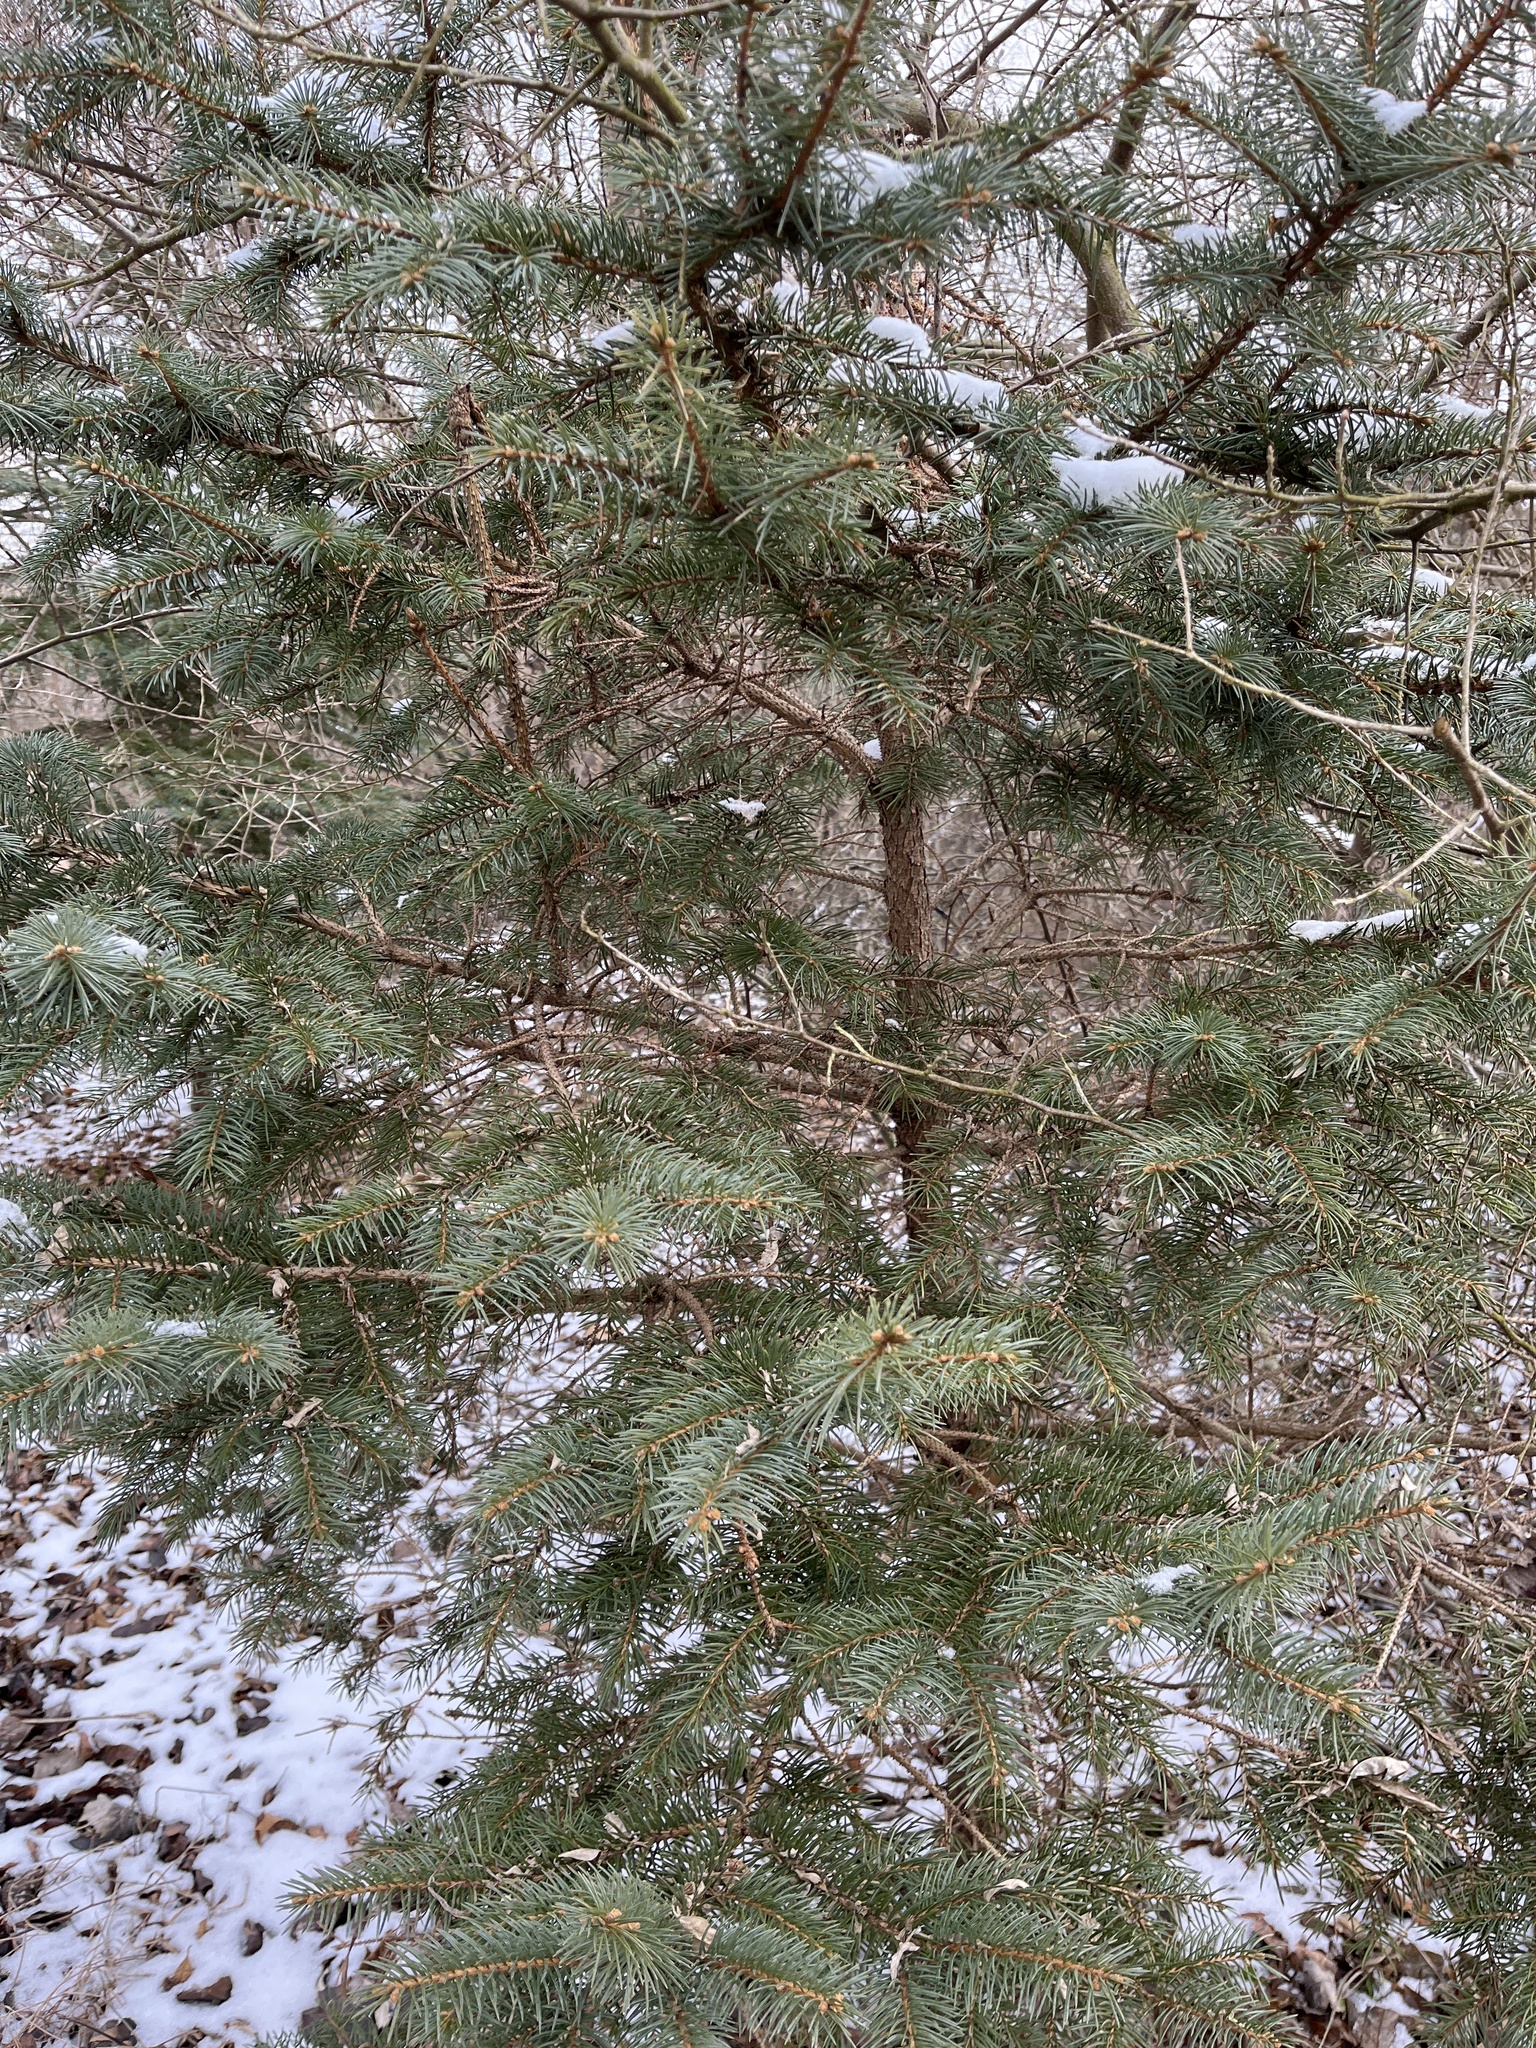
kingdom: Plantae
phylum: Tracheophyta
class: Pinopsida
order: Pinales
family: Pinaceae
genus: Picea
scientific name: Picea pungens
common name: Colorado spruce
